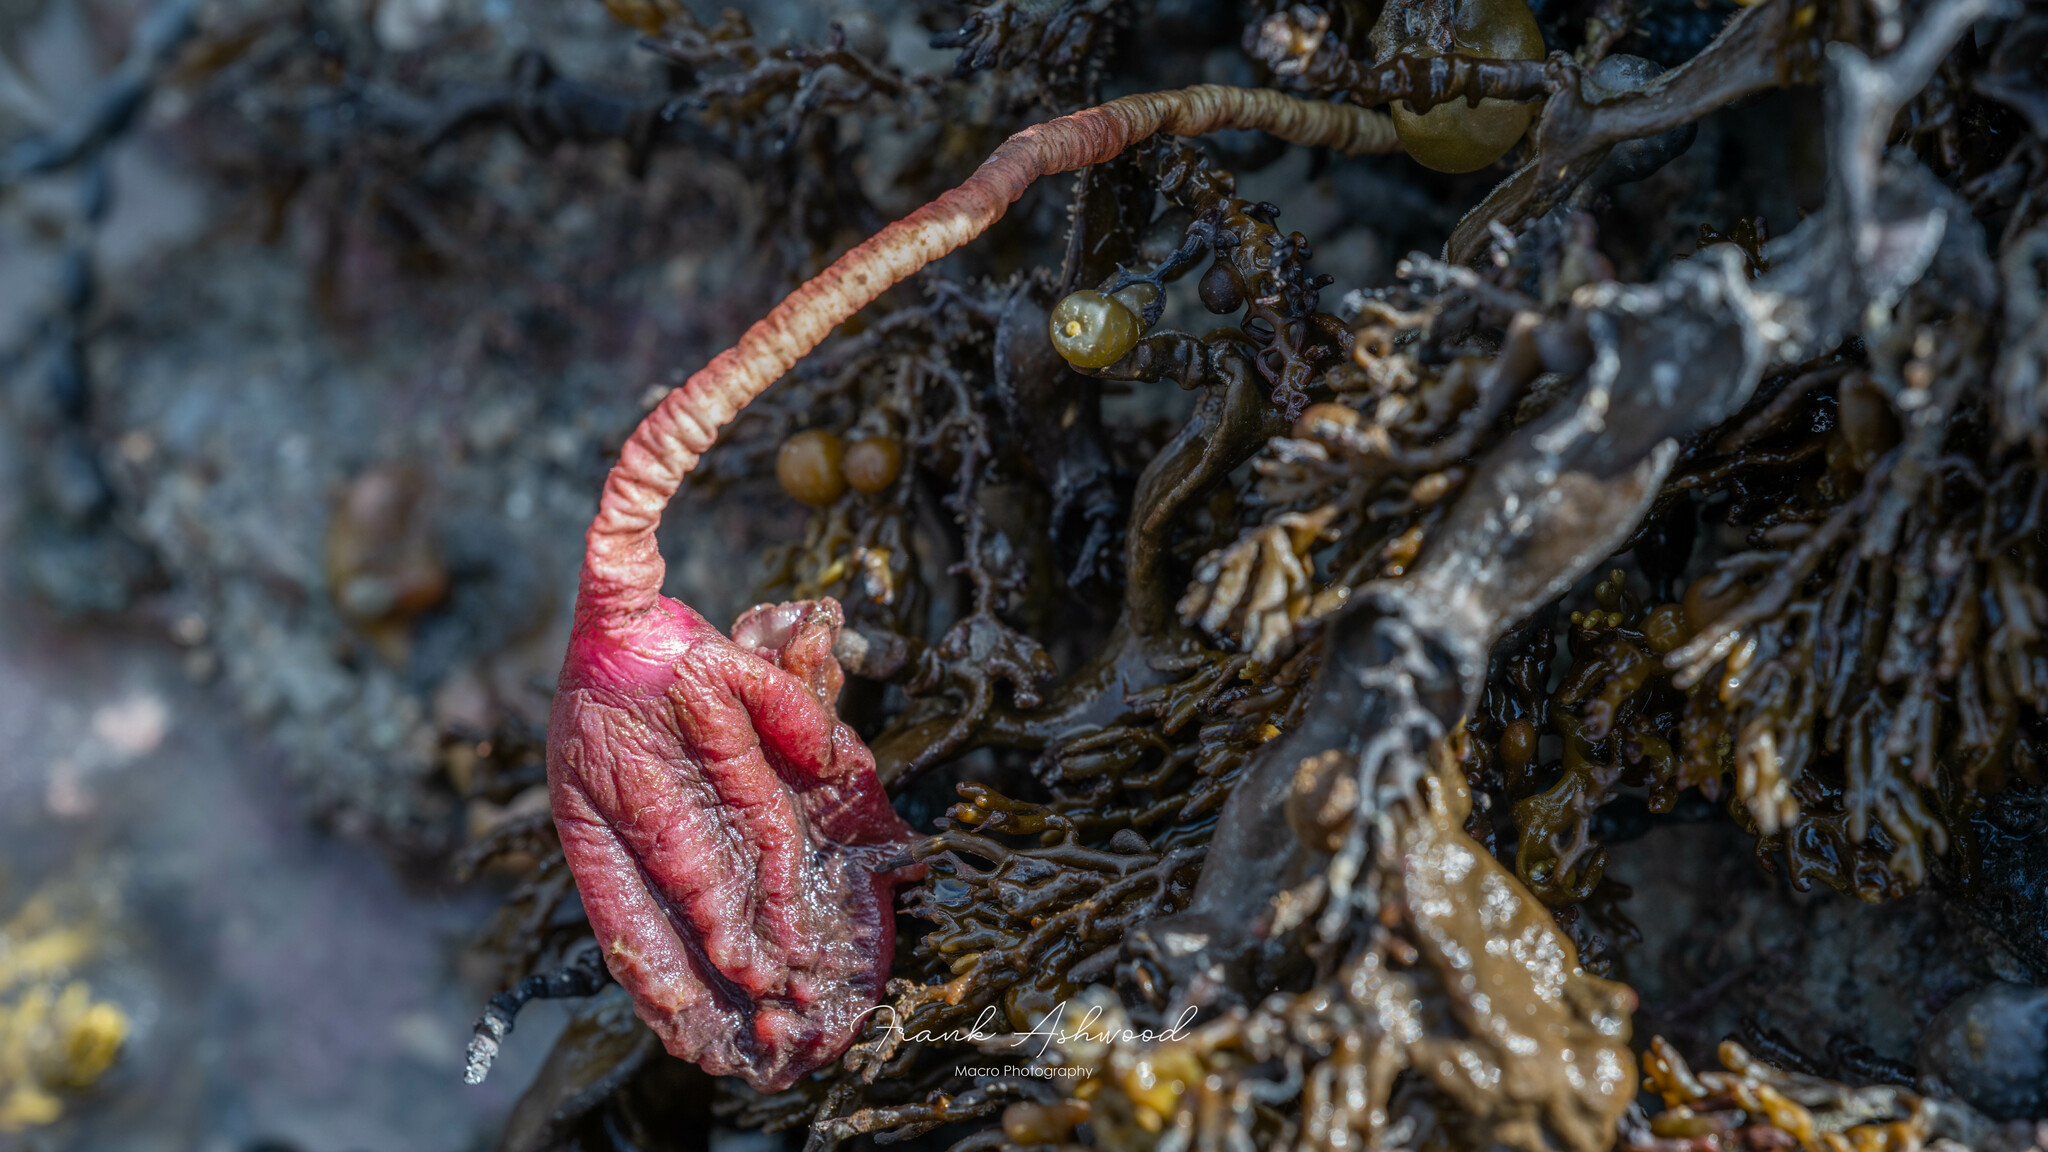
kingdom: Animalia
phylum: Chordata
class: Ascidiacea
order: Stolidobranchia
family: Pyuridae
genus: Pyura
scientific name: Pyura pachydermatina
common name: Sea tulip
